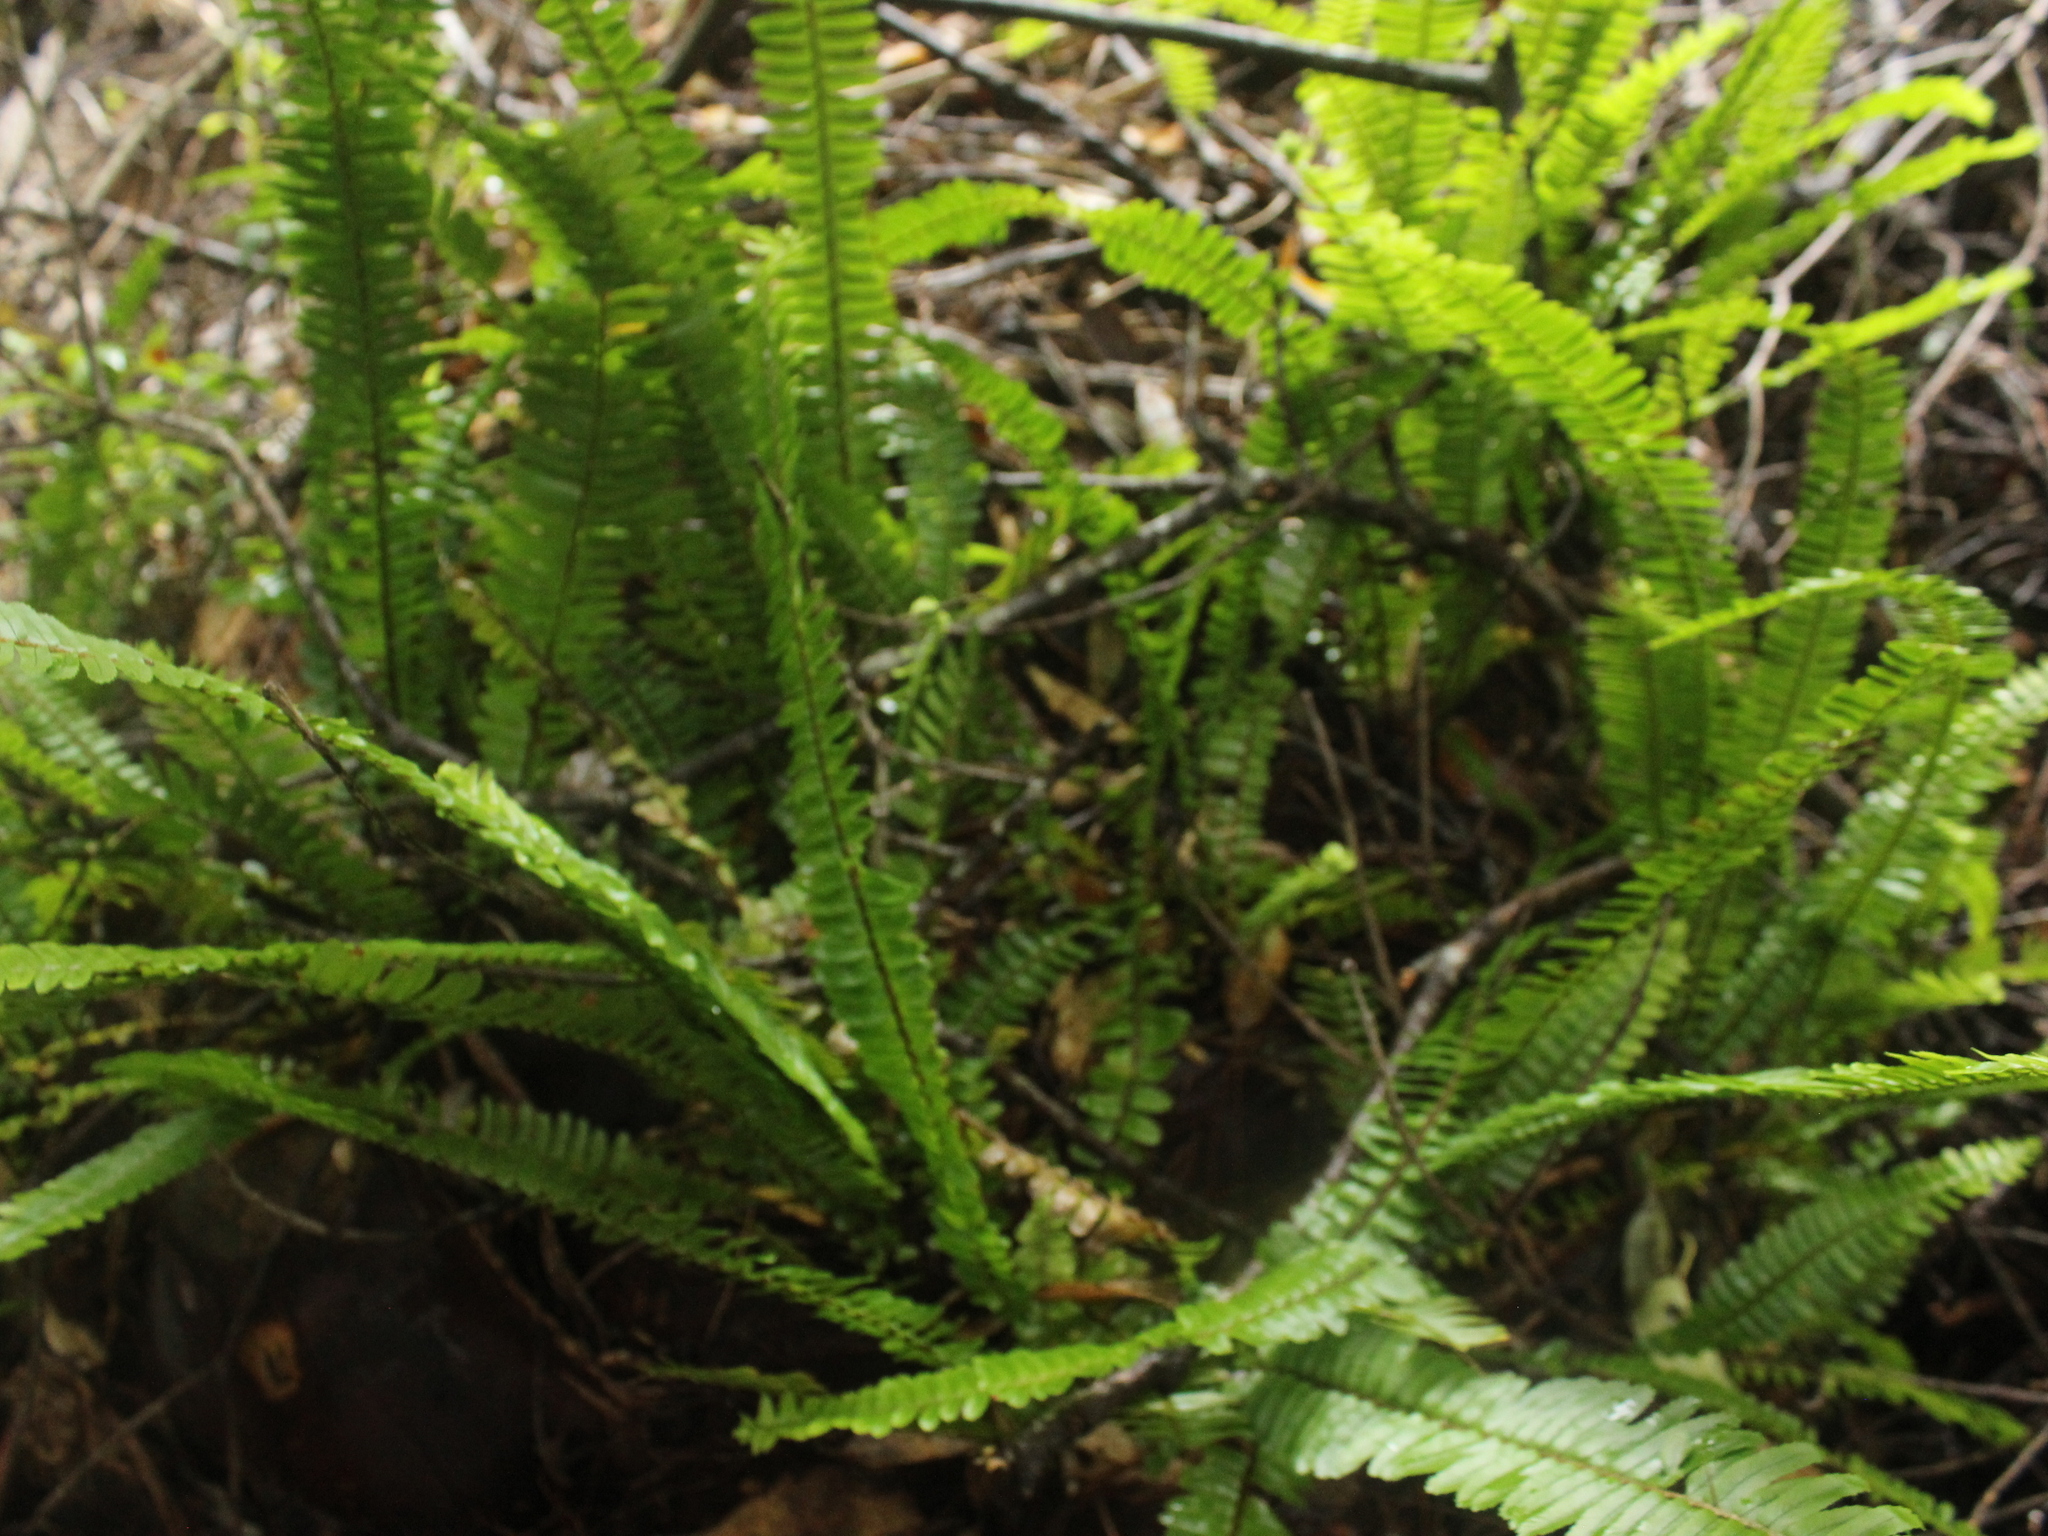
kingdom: Plantae
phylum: Tracheophyta
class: Polypodiopsida
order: Polypodiales
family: Nephrolepidaceae
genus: Nephrolepis
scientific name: Nephrolepis cordifolia
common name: Narrow swordfern
